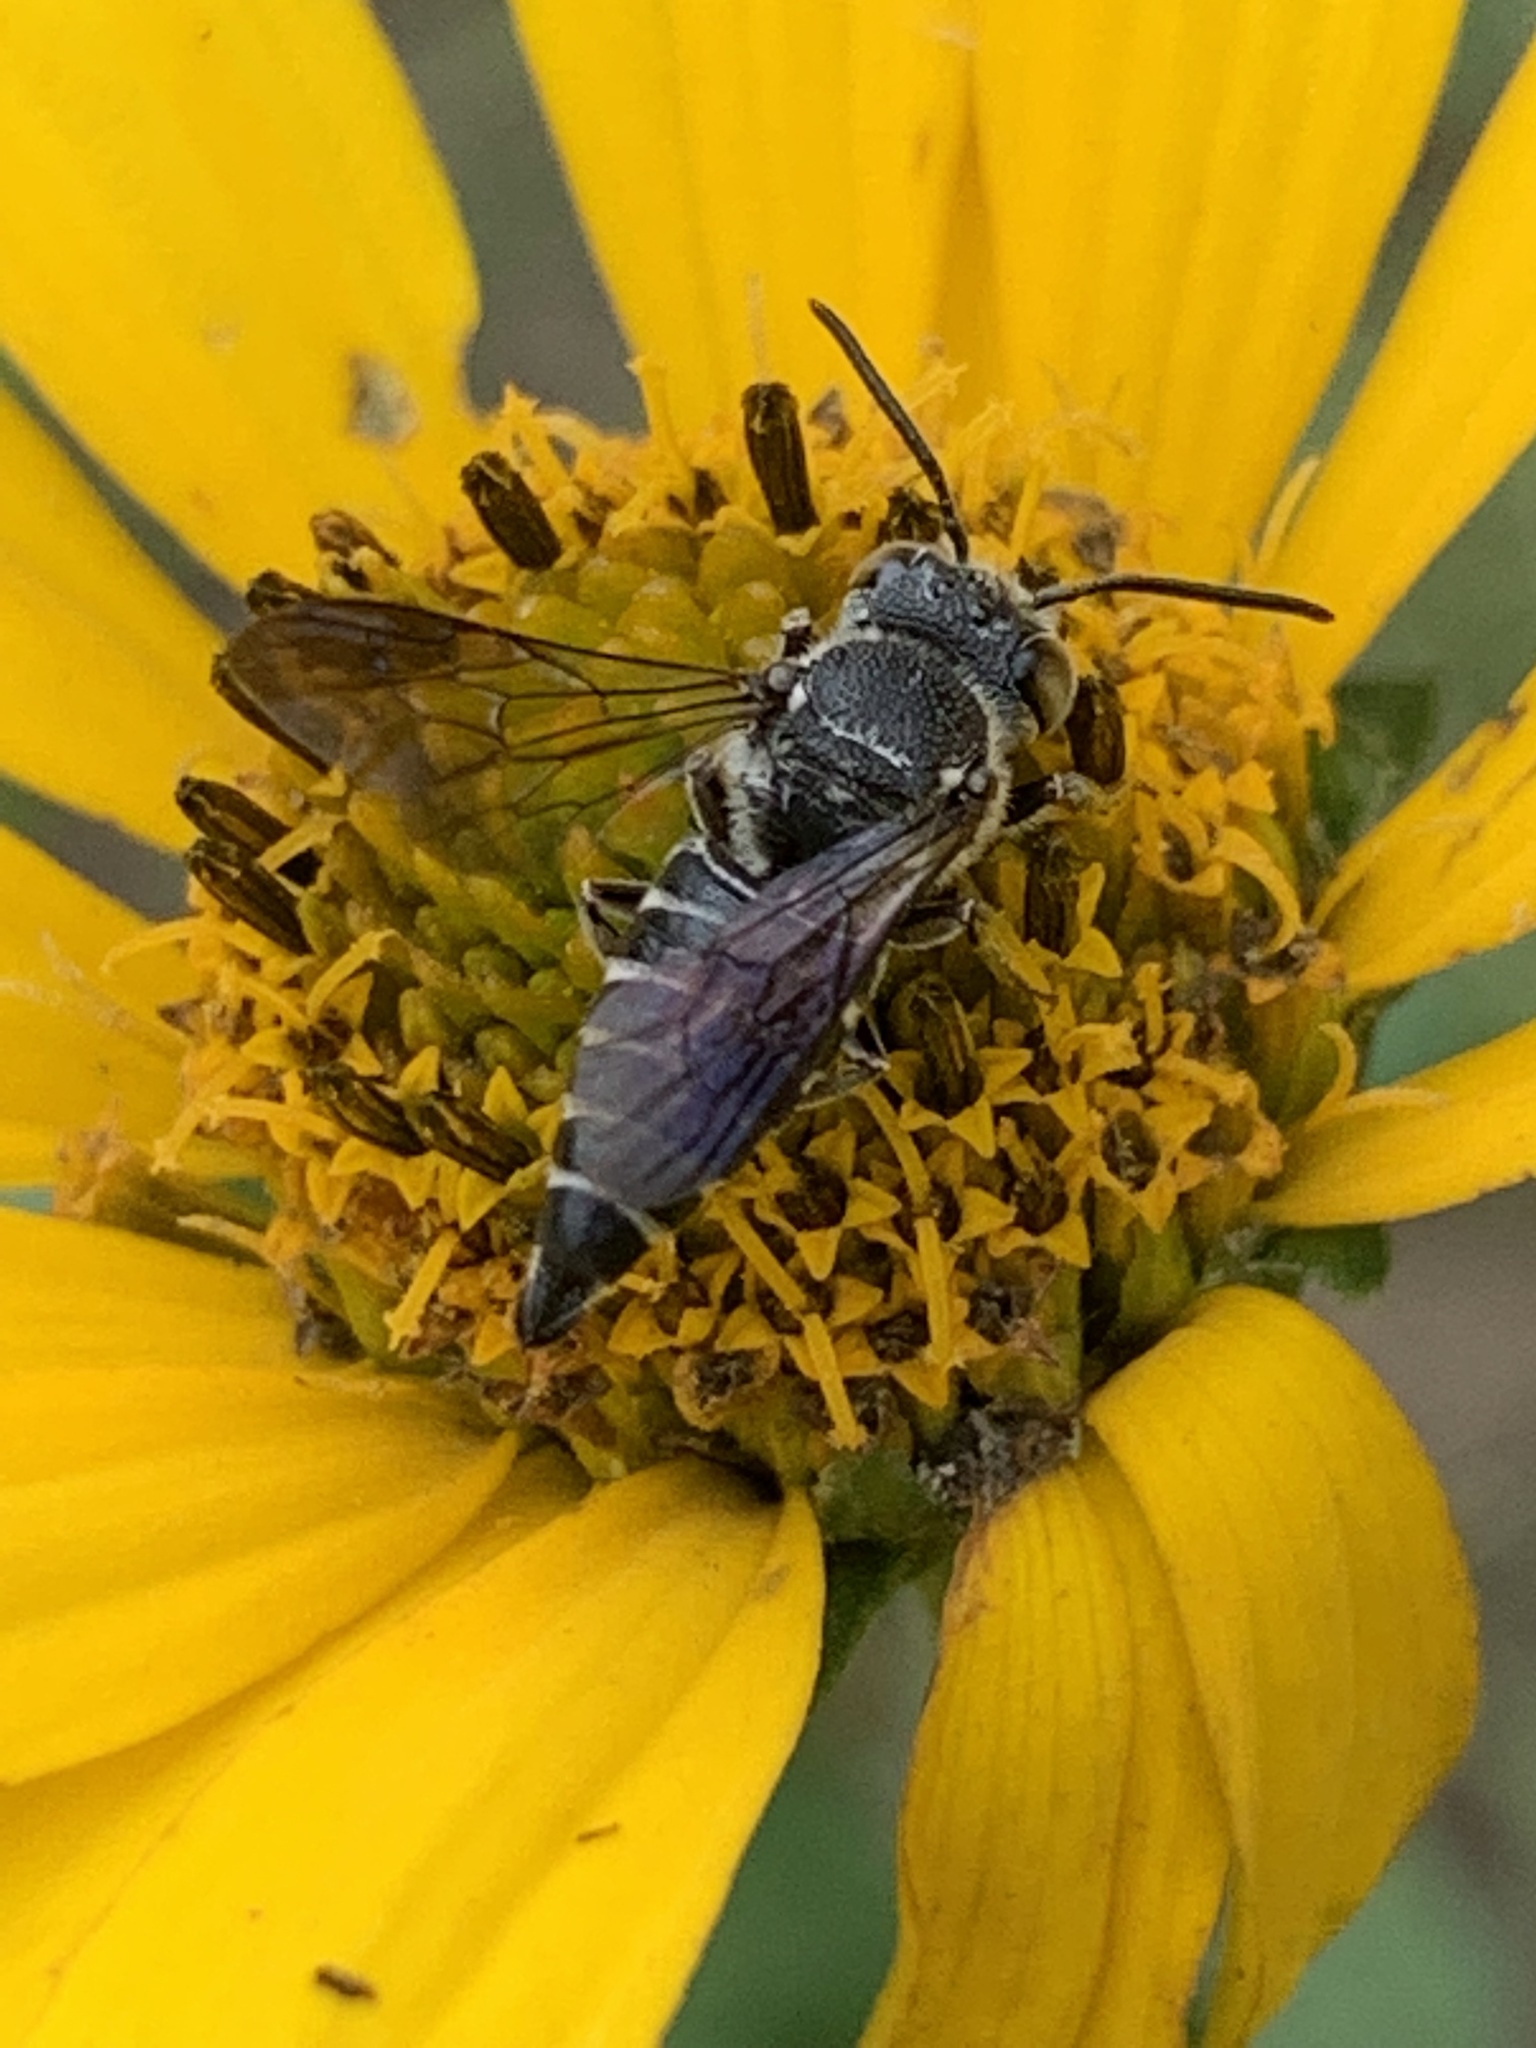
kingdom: Animalia
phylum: Arthropoda
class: Insecta
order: Hymenoptera
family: Megachilidae
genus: Coelioxys
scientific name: Coelioxys modestus
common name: Modest sharptail
